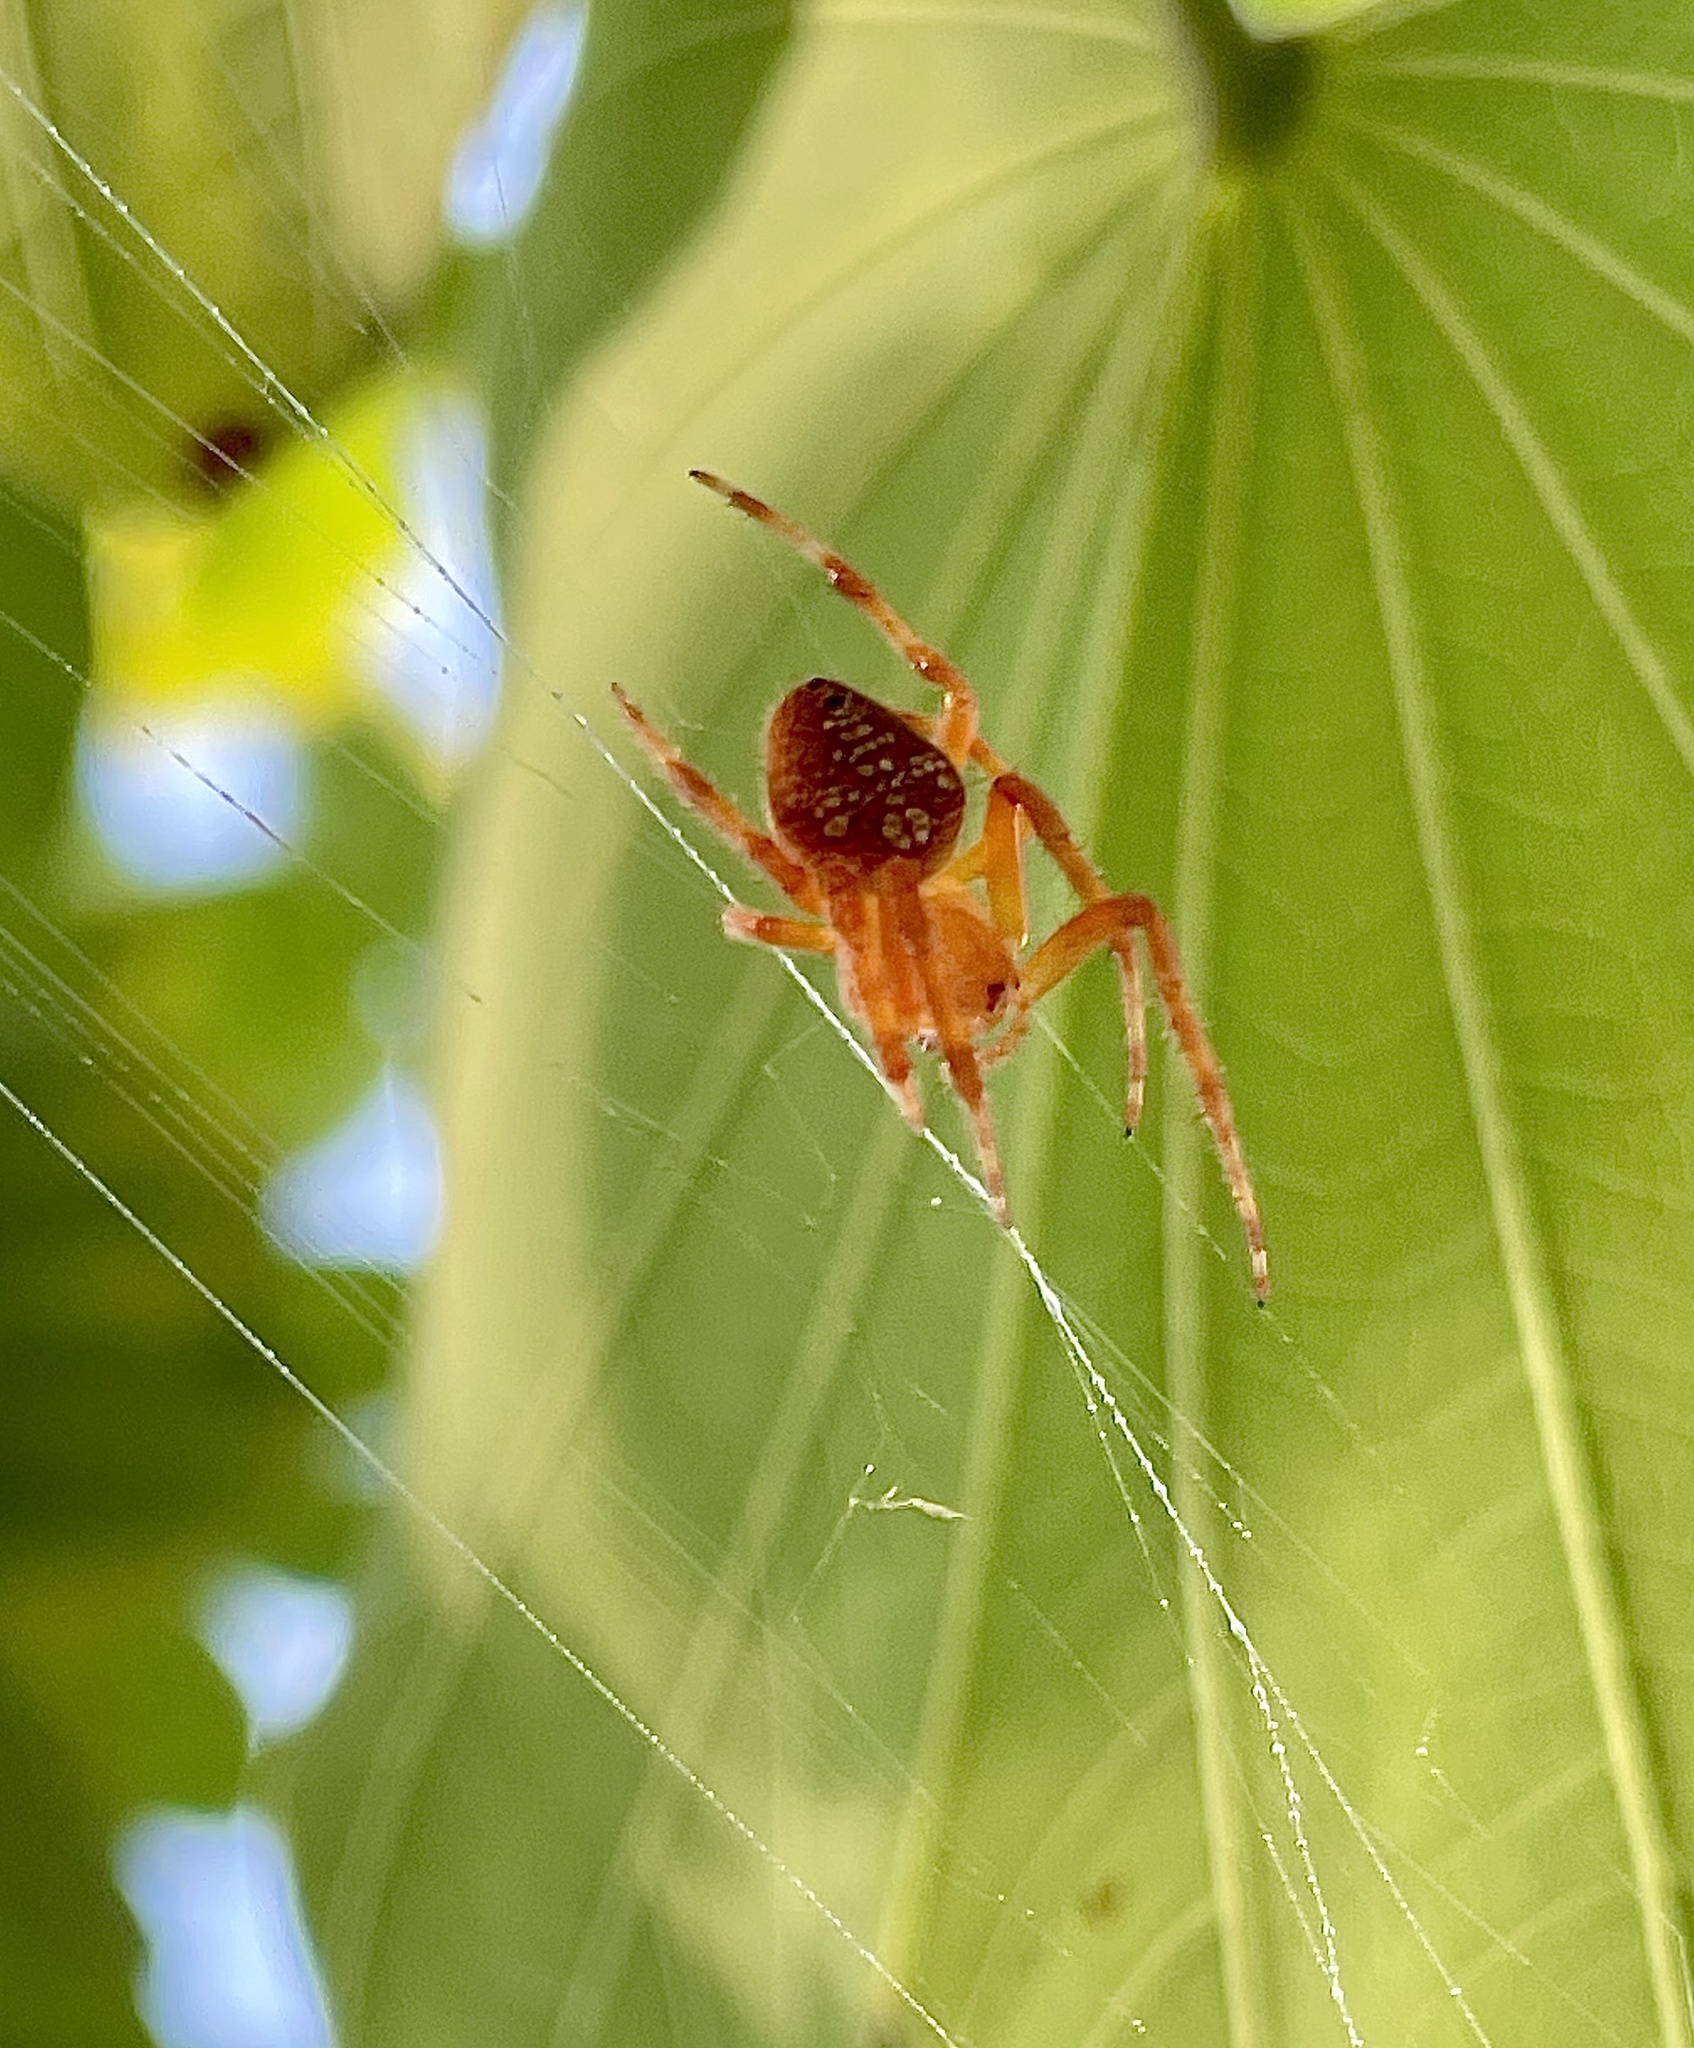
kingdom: Animalia
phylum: Arthropoda
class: Arachnida
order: Araneae
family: Araneidae
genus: Eriophora
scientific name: Eriophora ravilla
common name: Orb weavers
